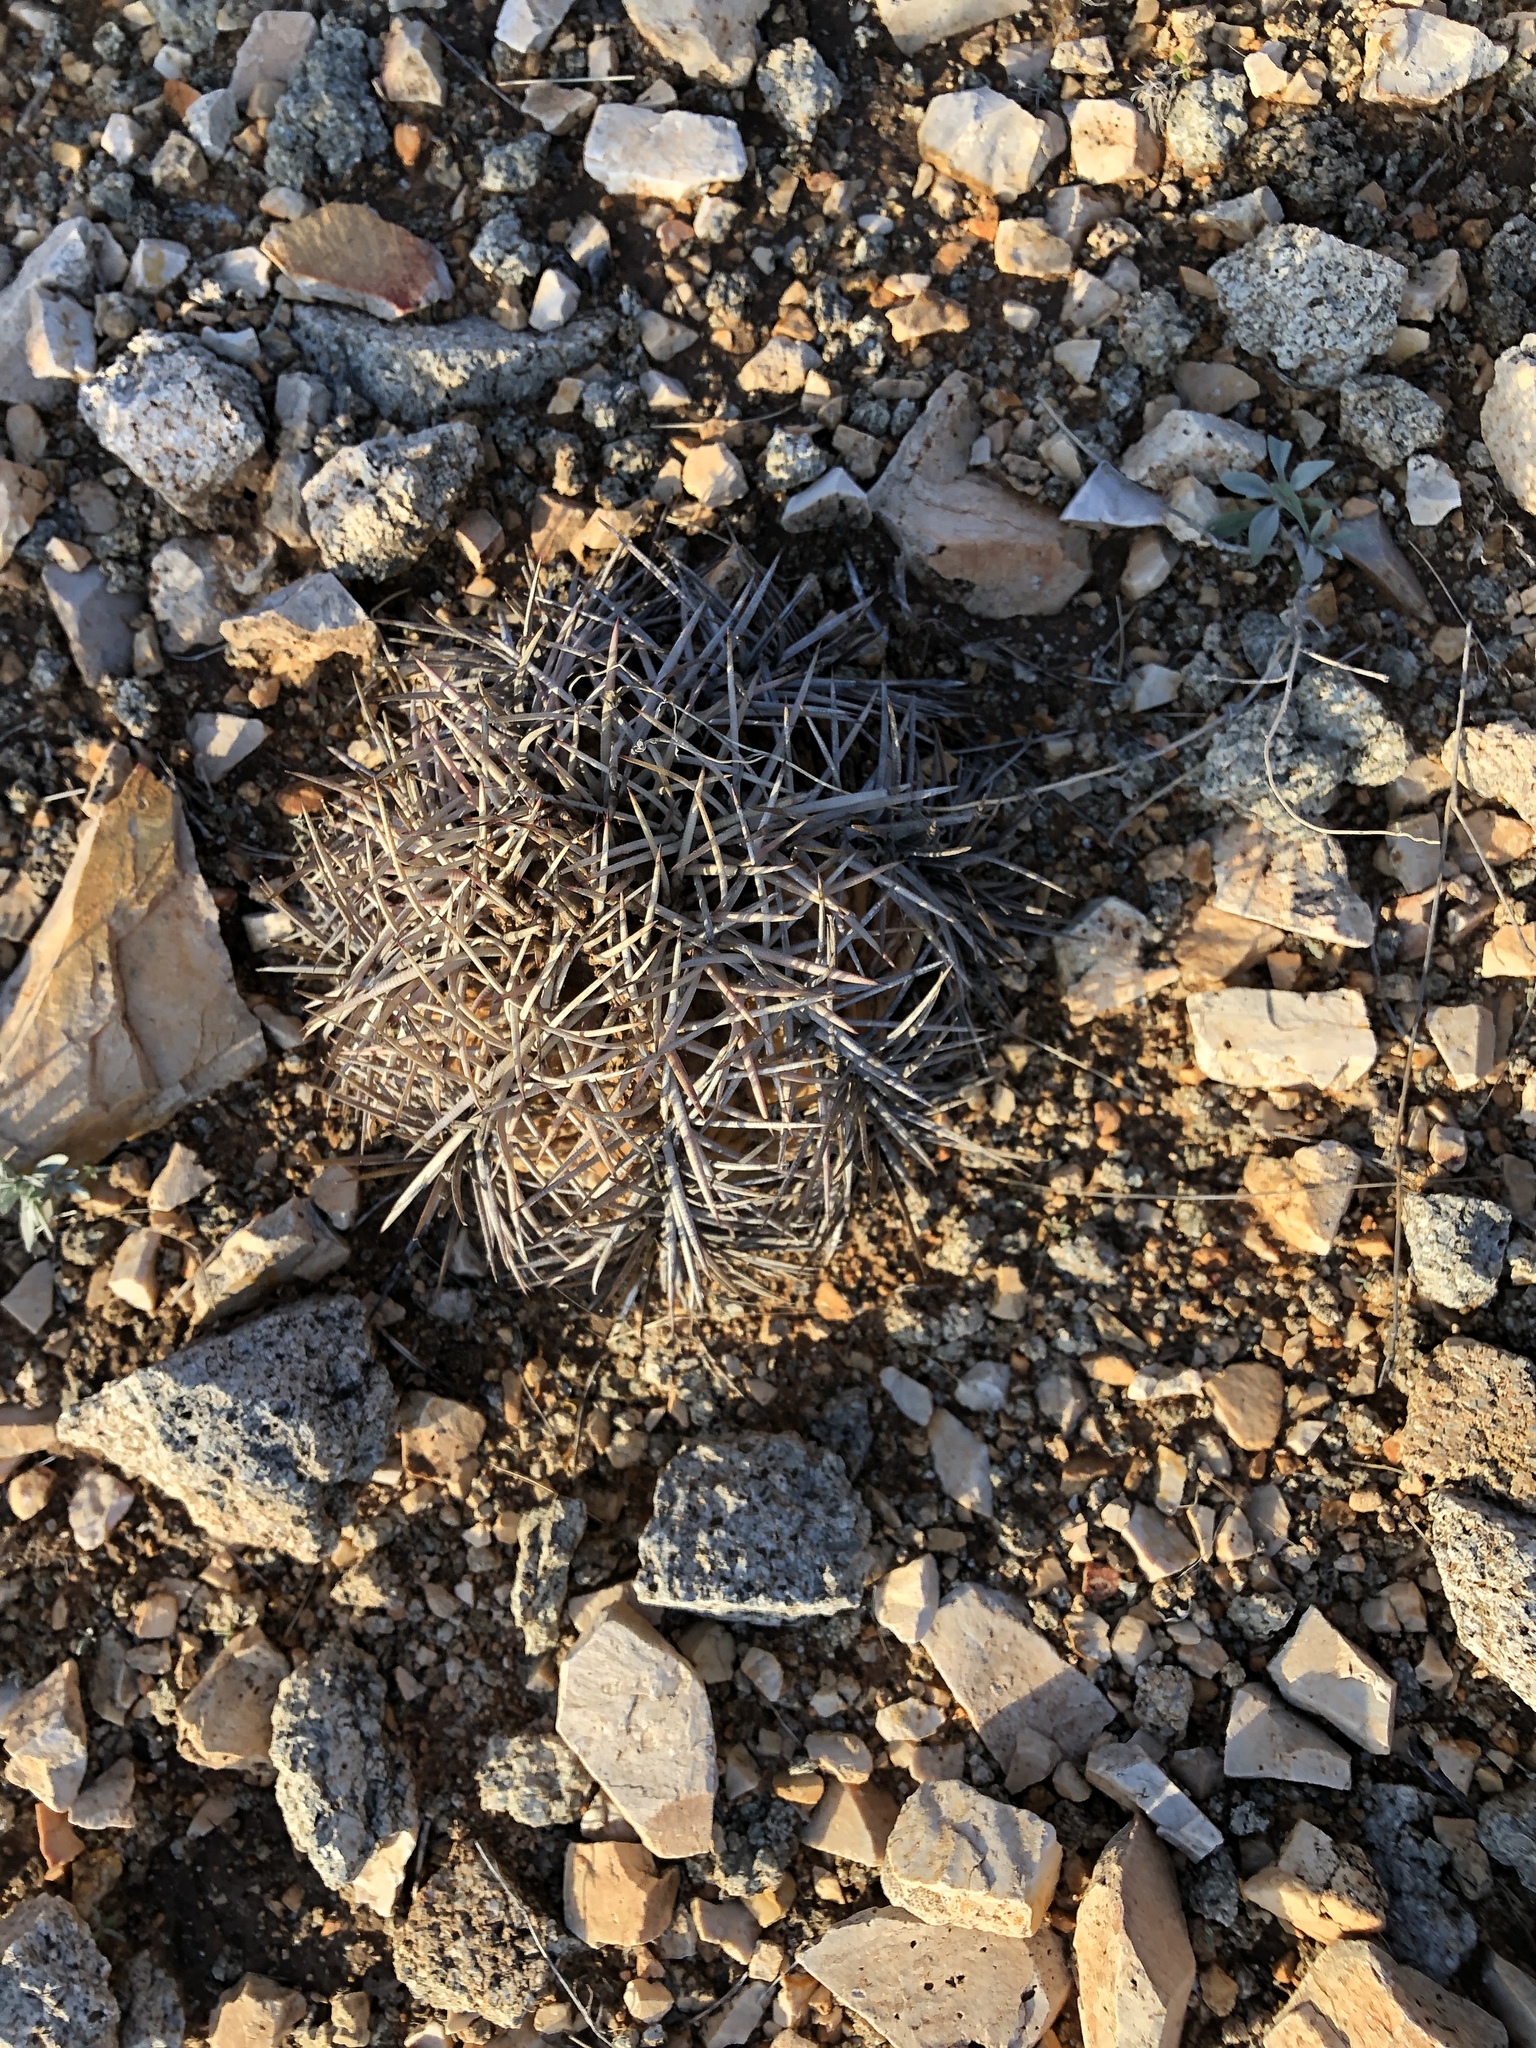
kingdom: Plantae
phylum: Tracheophyta
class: Magnoliopsida
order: Caryophyllales
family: Cactaceae
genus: Echinocactus
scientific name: Echinocactus horizonthalonius
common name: Devilshead
